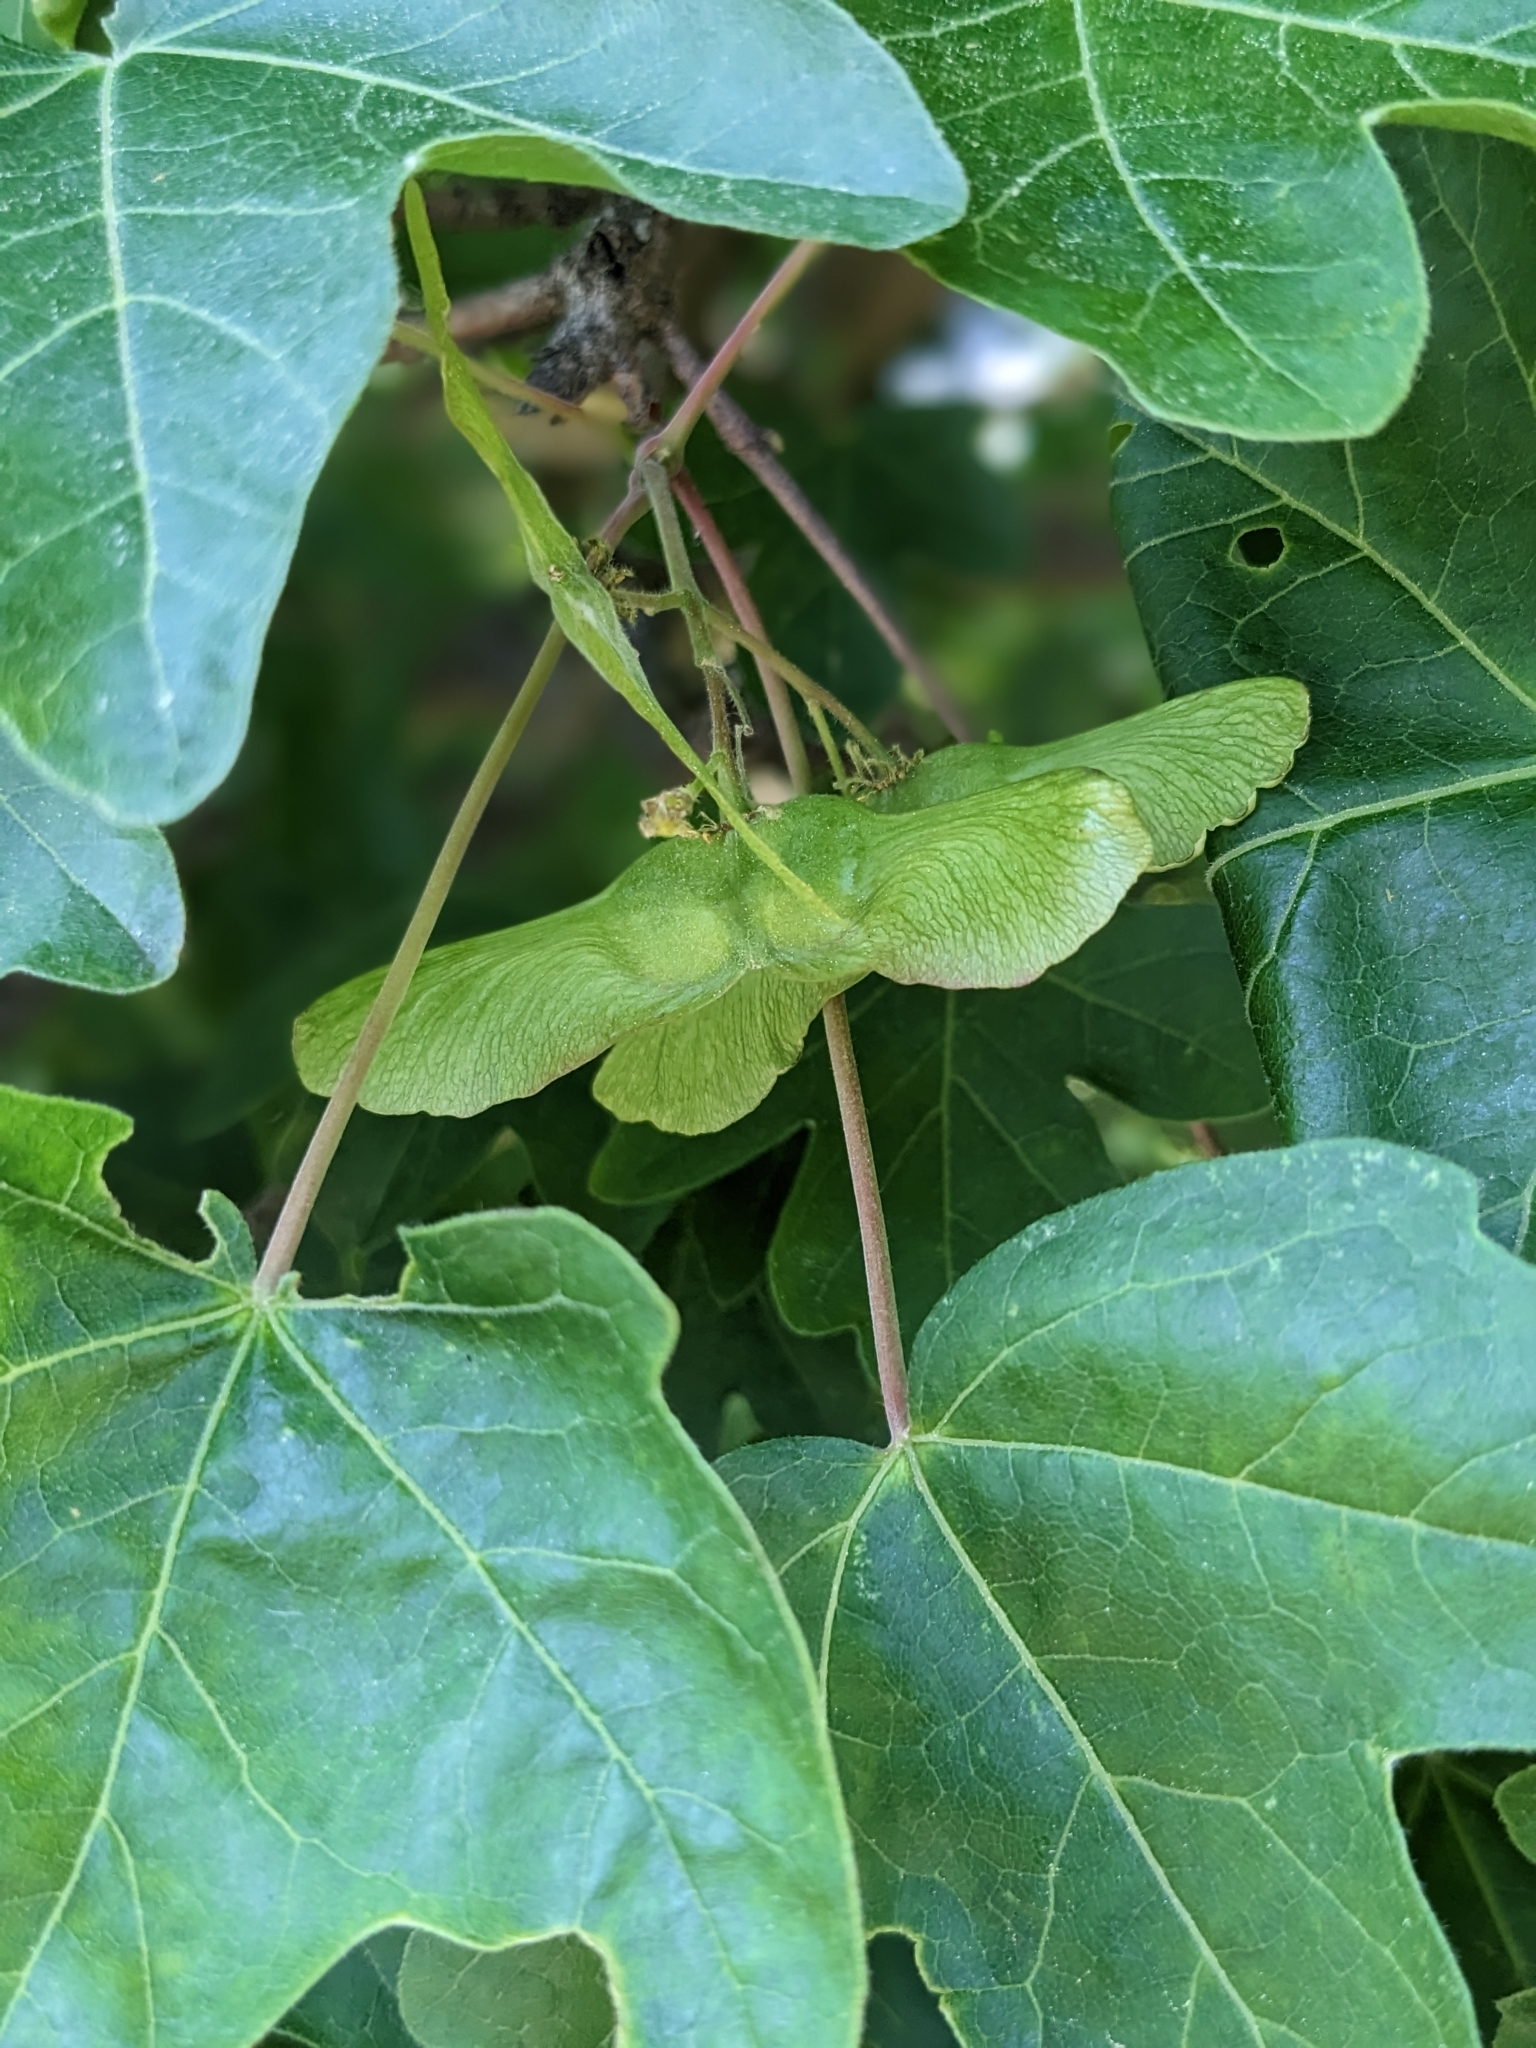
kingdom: Plantae
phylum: Tracheophyta
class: Magnoliopsida
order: Sapindales
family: Sapindaceae
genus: Acer
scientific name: Acer campestre
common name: Field maple
